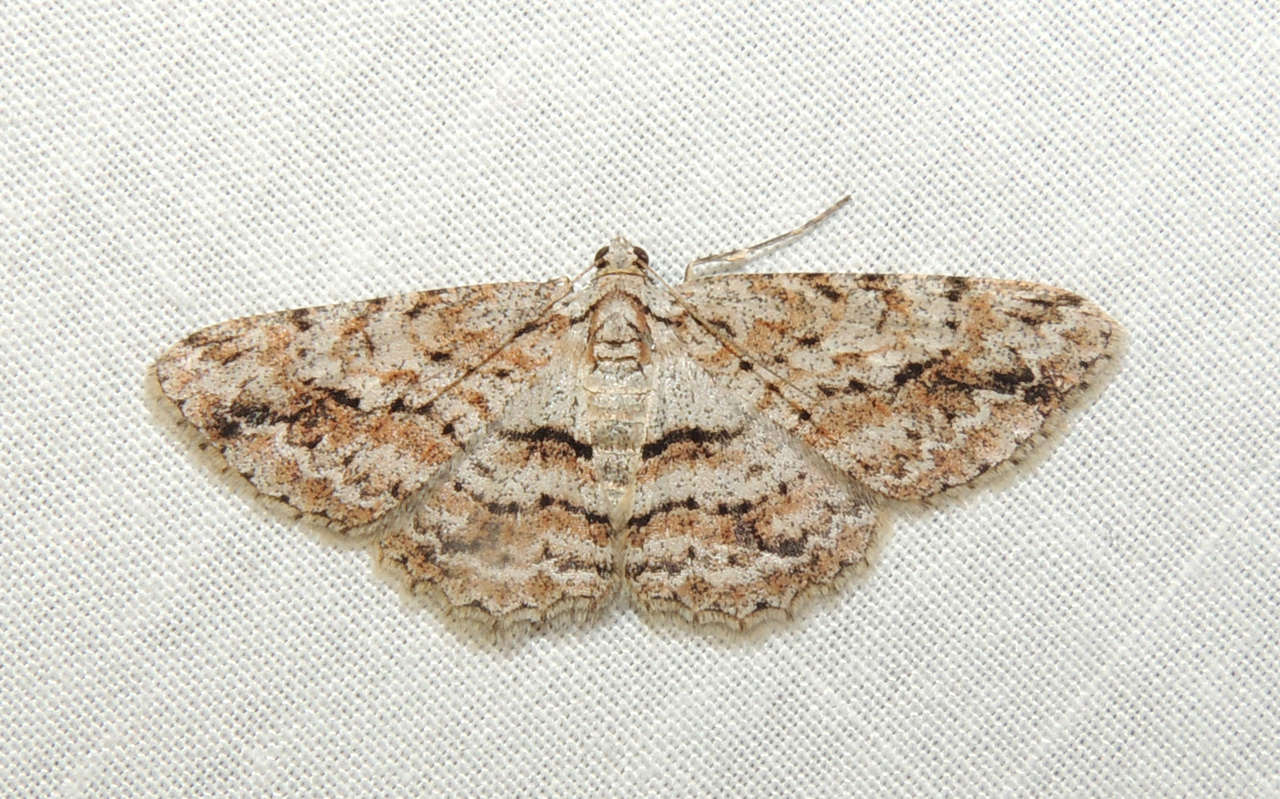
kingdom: Animalia
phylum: Arthropoda
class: Insecta
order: Lepidoptera
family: Geometridae
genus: Didymoctenia
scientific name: Didymoctenia exsuperata
